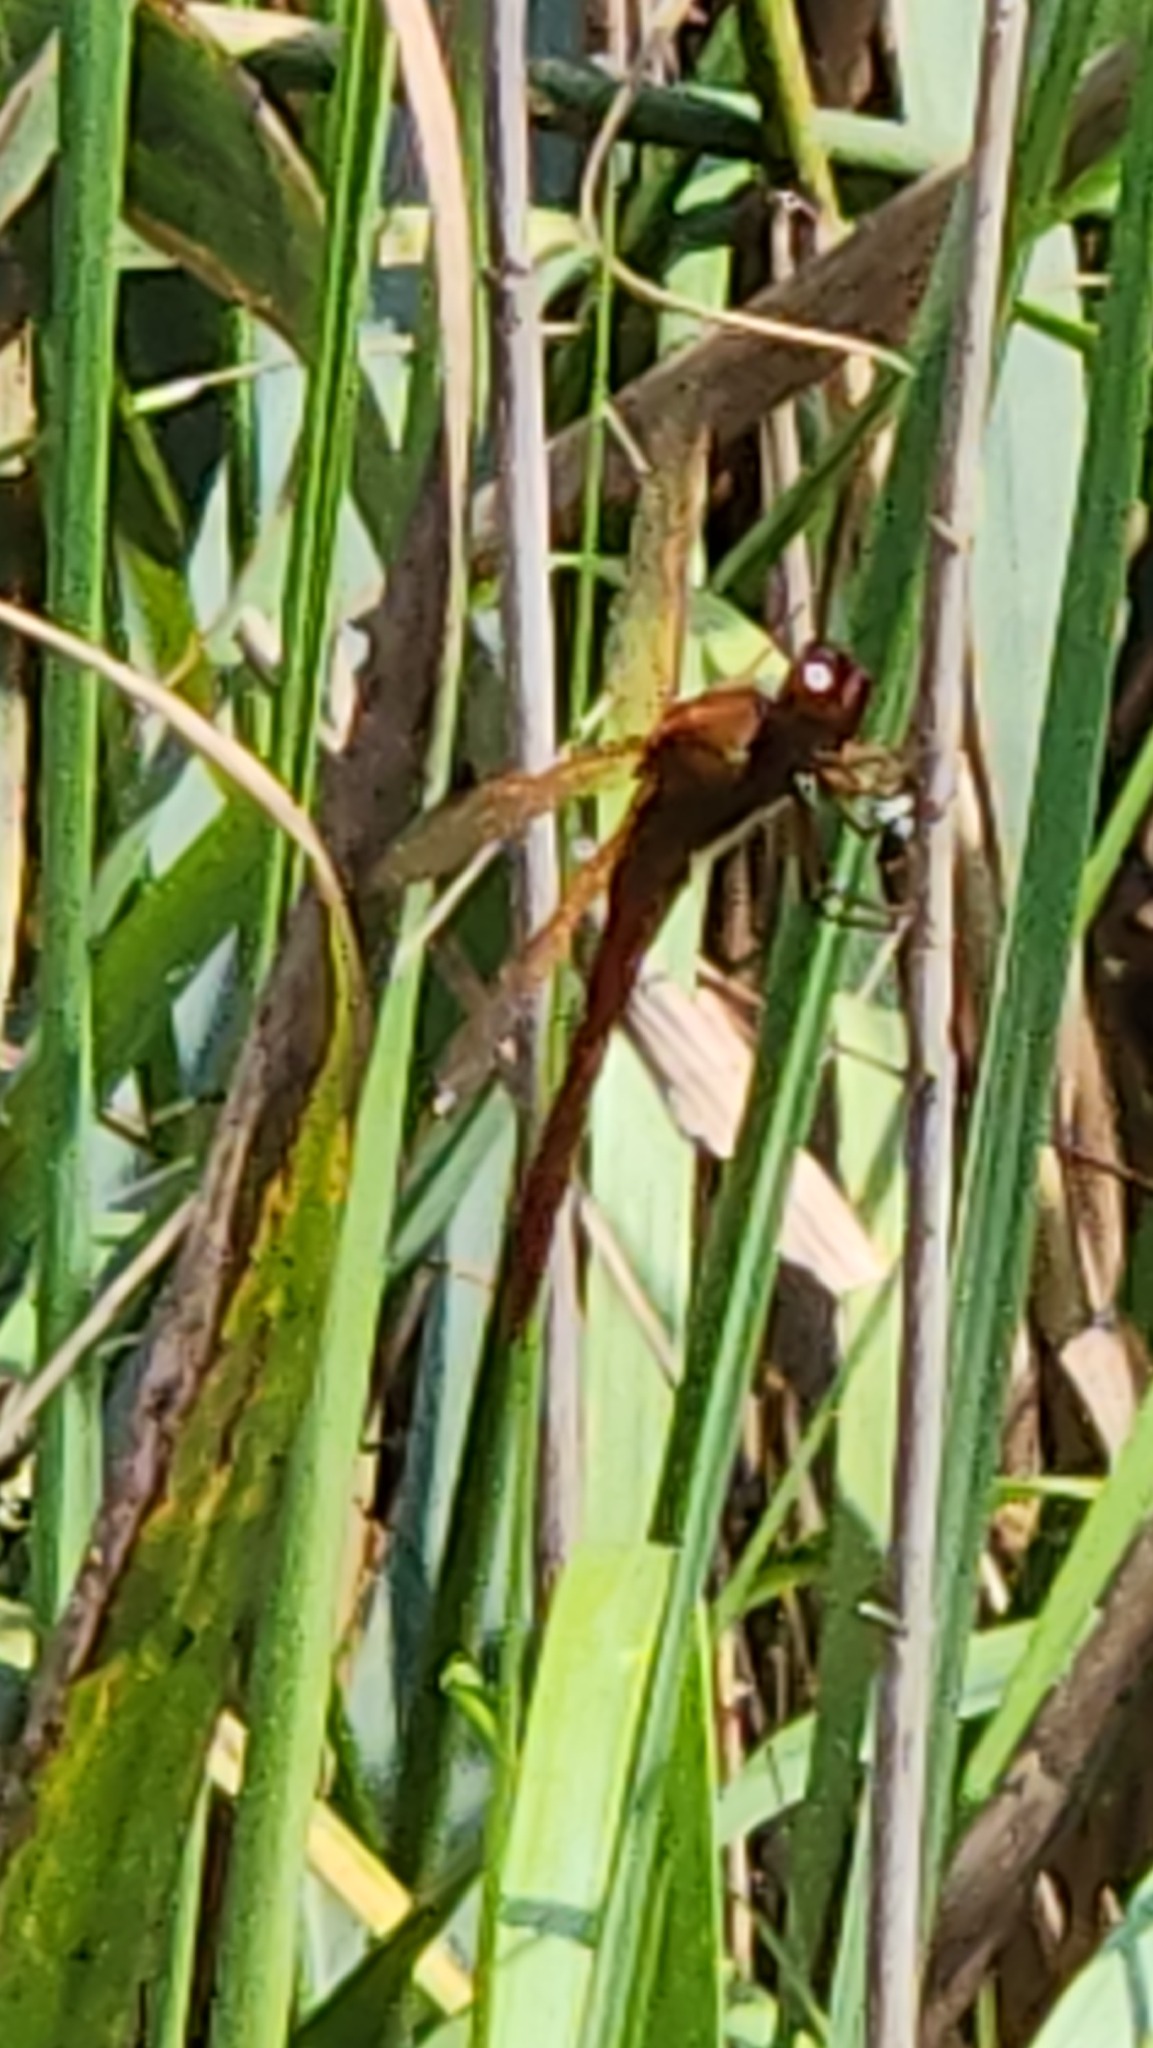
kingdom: Animalia
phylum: Arthropoda
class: Insecta
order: Odonata
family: Libellulidae
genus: Libellula
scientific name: Libellula needhami
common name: Needham's skimmer
